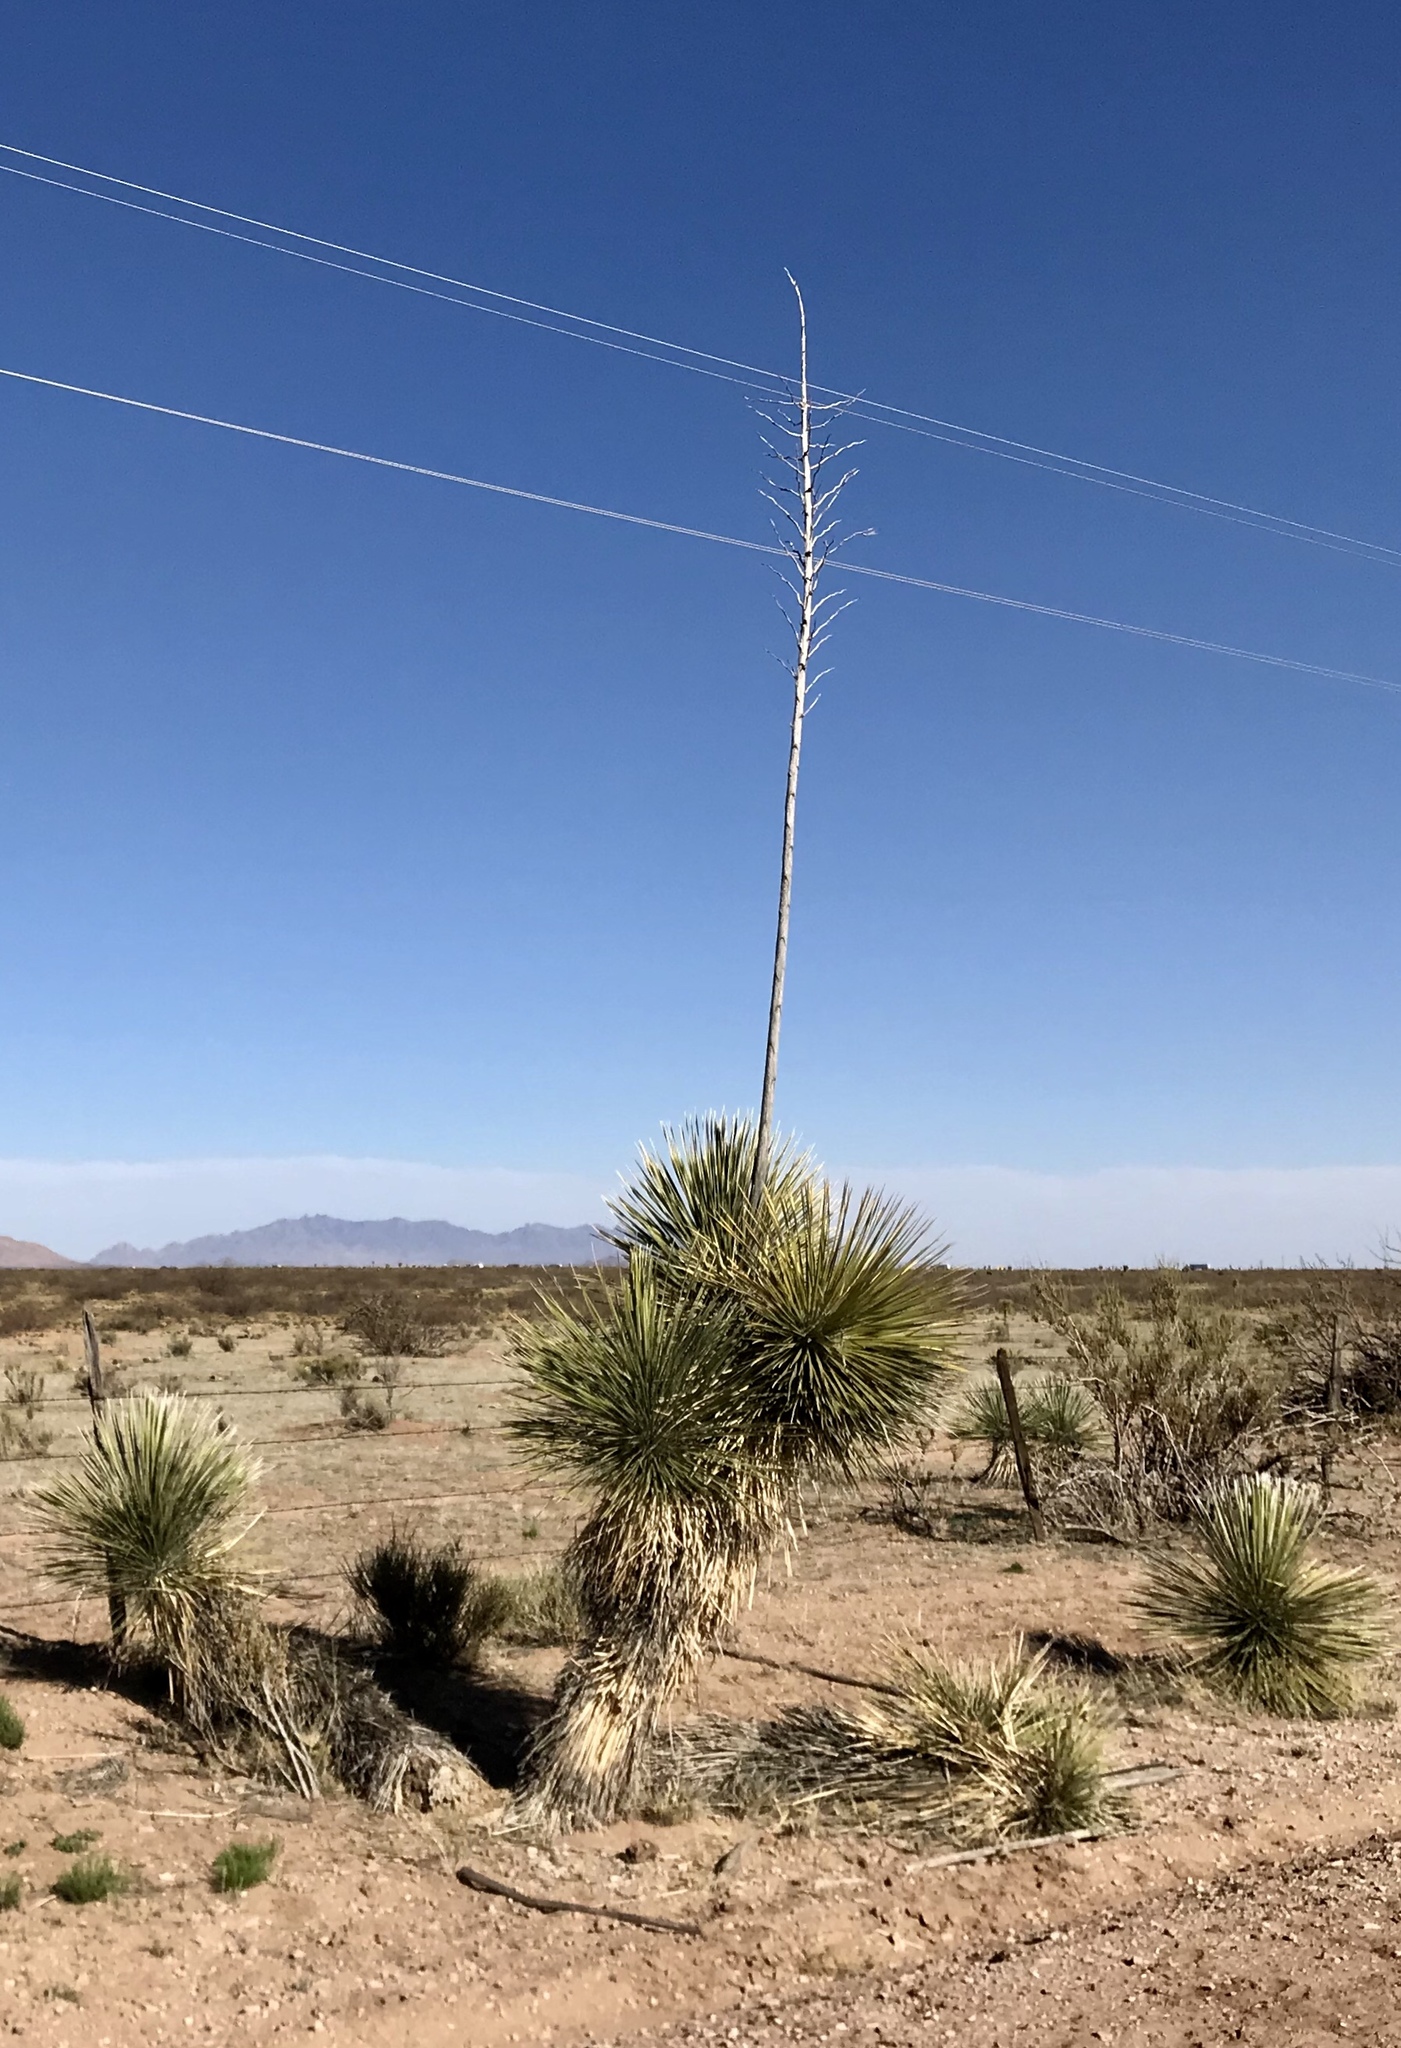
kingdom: Plantae
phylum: Tracheophyta
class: Liliopsida
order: Asparagales
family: Asparagaceae
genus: Yucca
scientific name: Yucca elata
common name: Palmella
